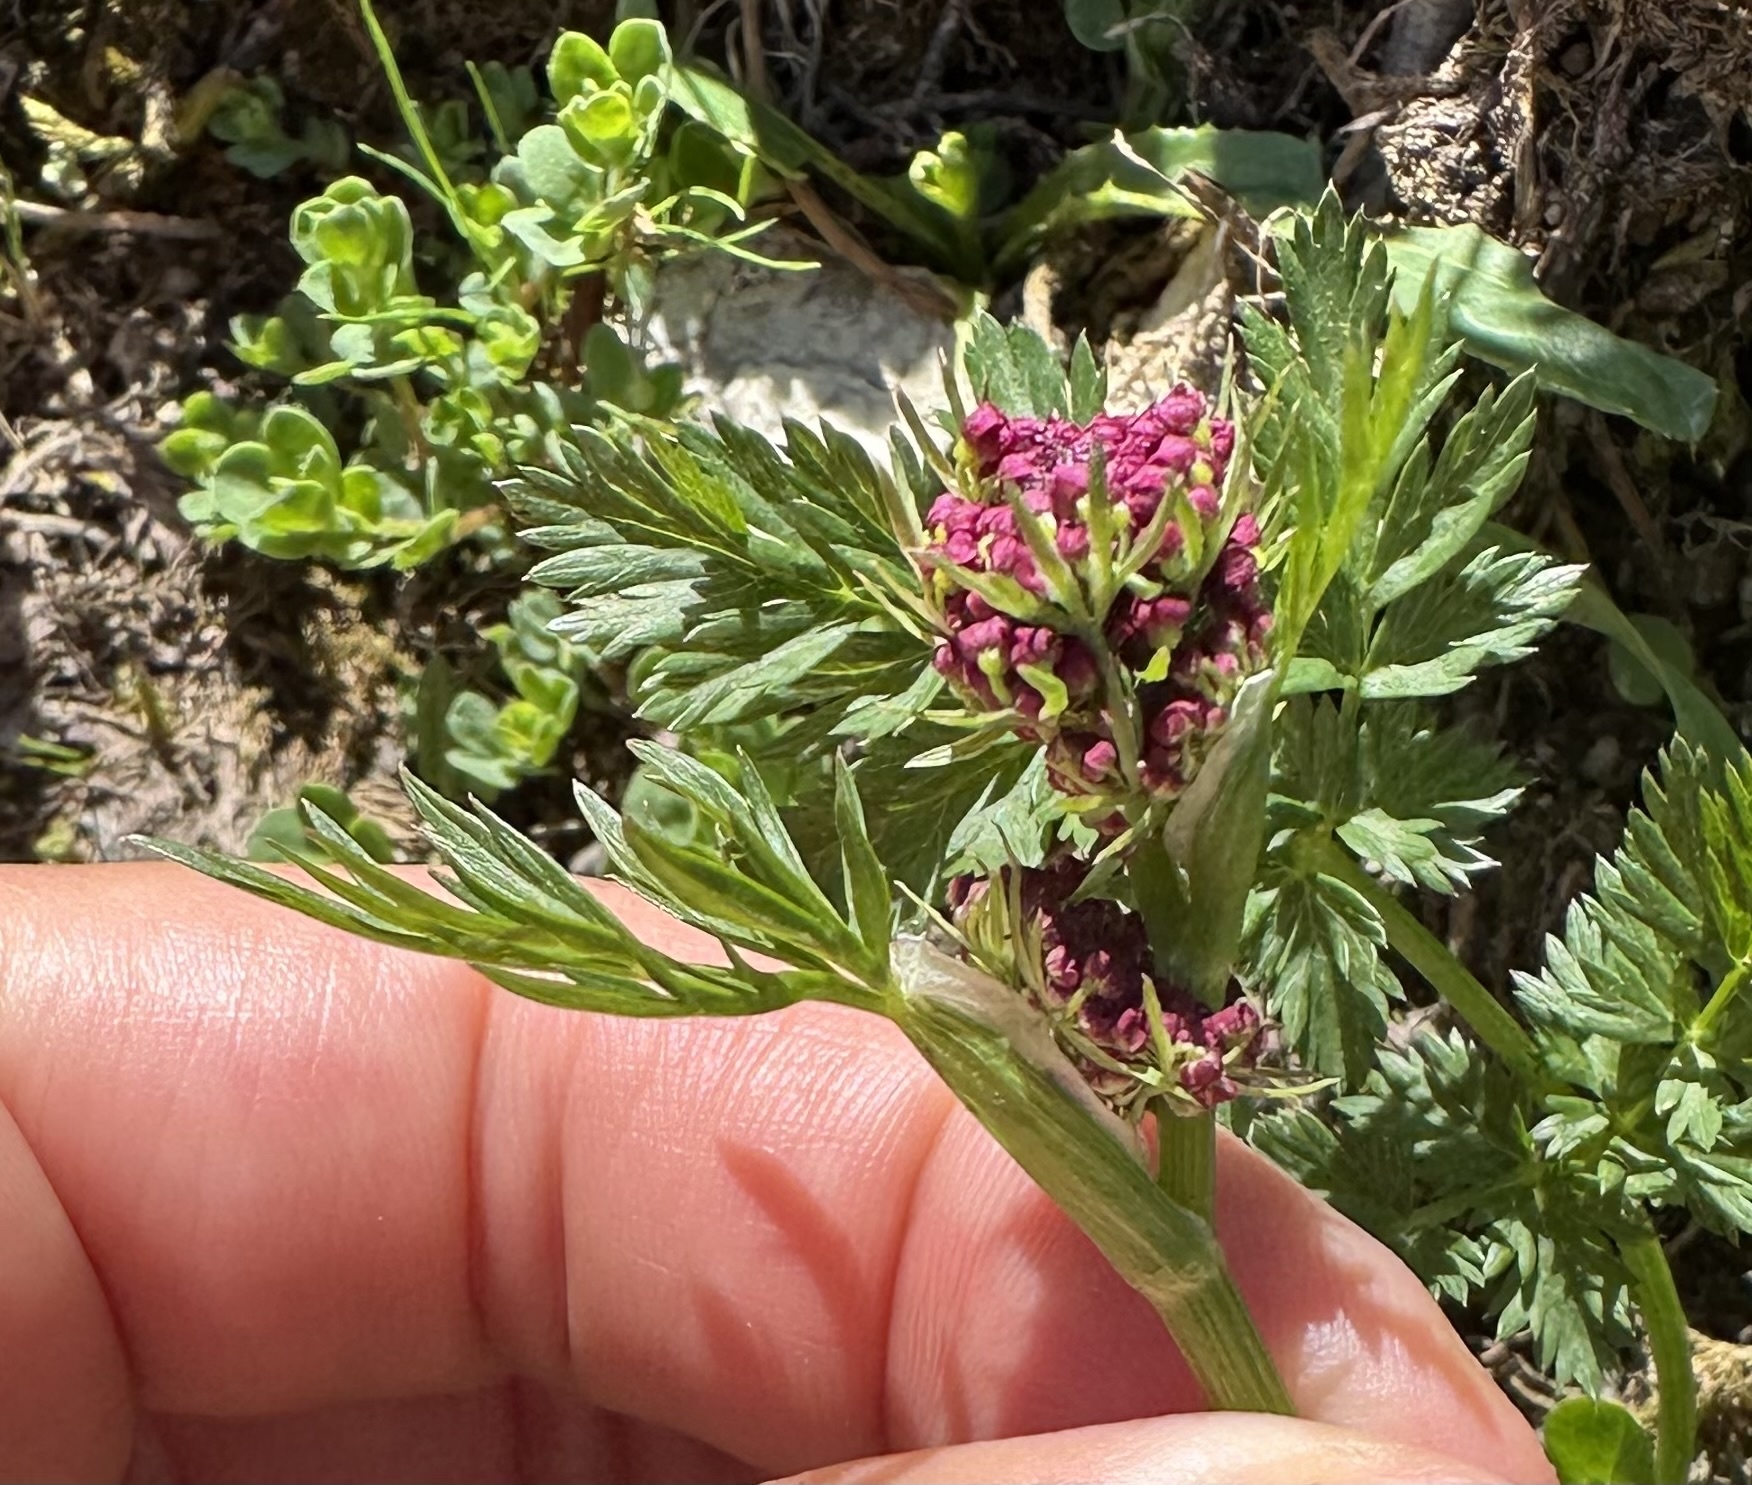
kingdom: Plantae
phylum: Tracheophyta
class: Magnoliopsida
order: Apiales
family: Apiaceae
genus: Mutellina
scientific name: Mutellina adonidifolia
